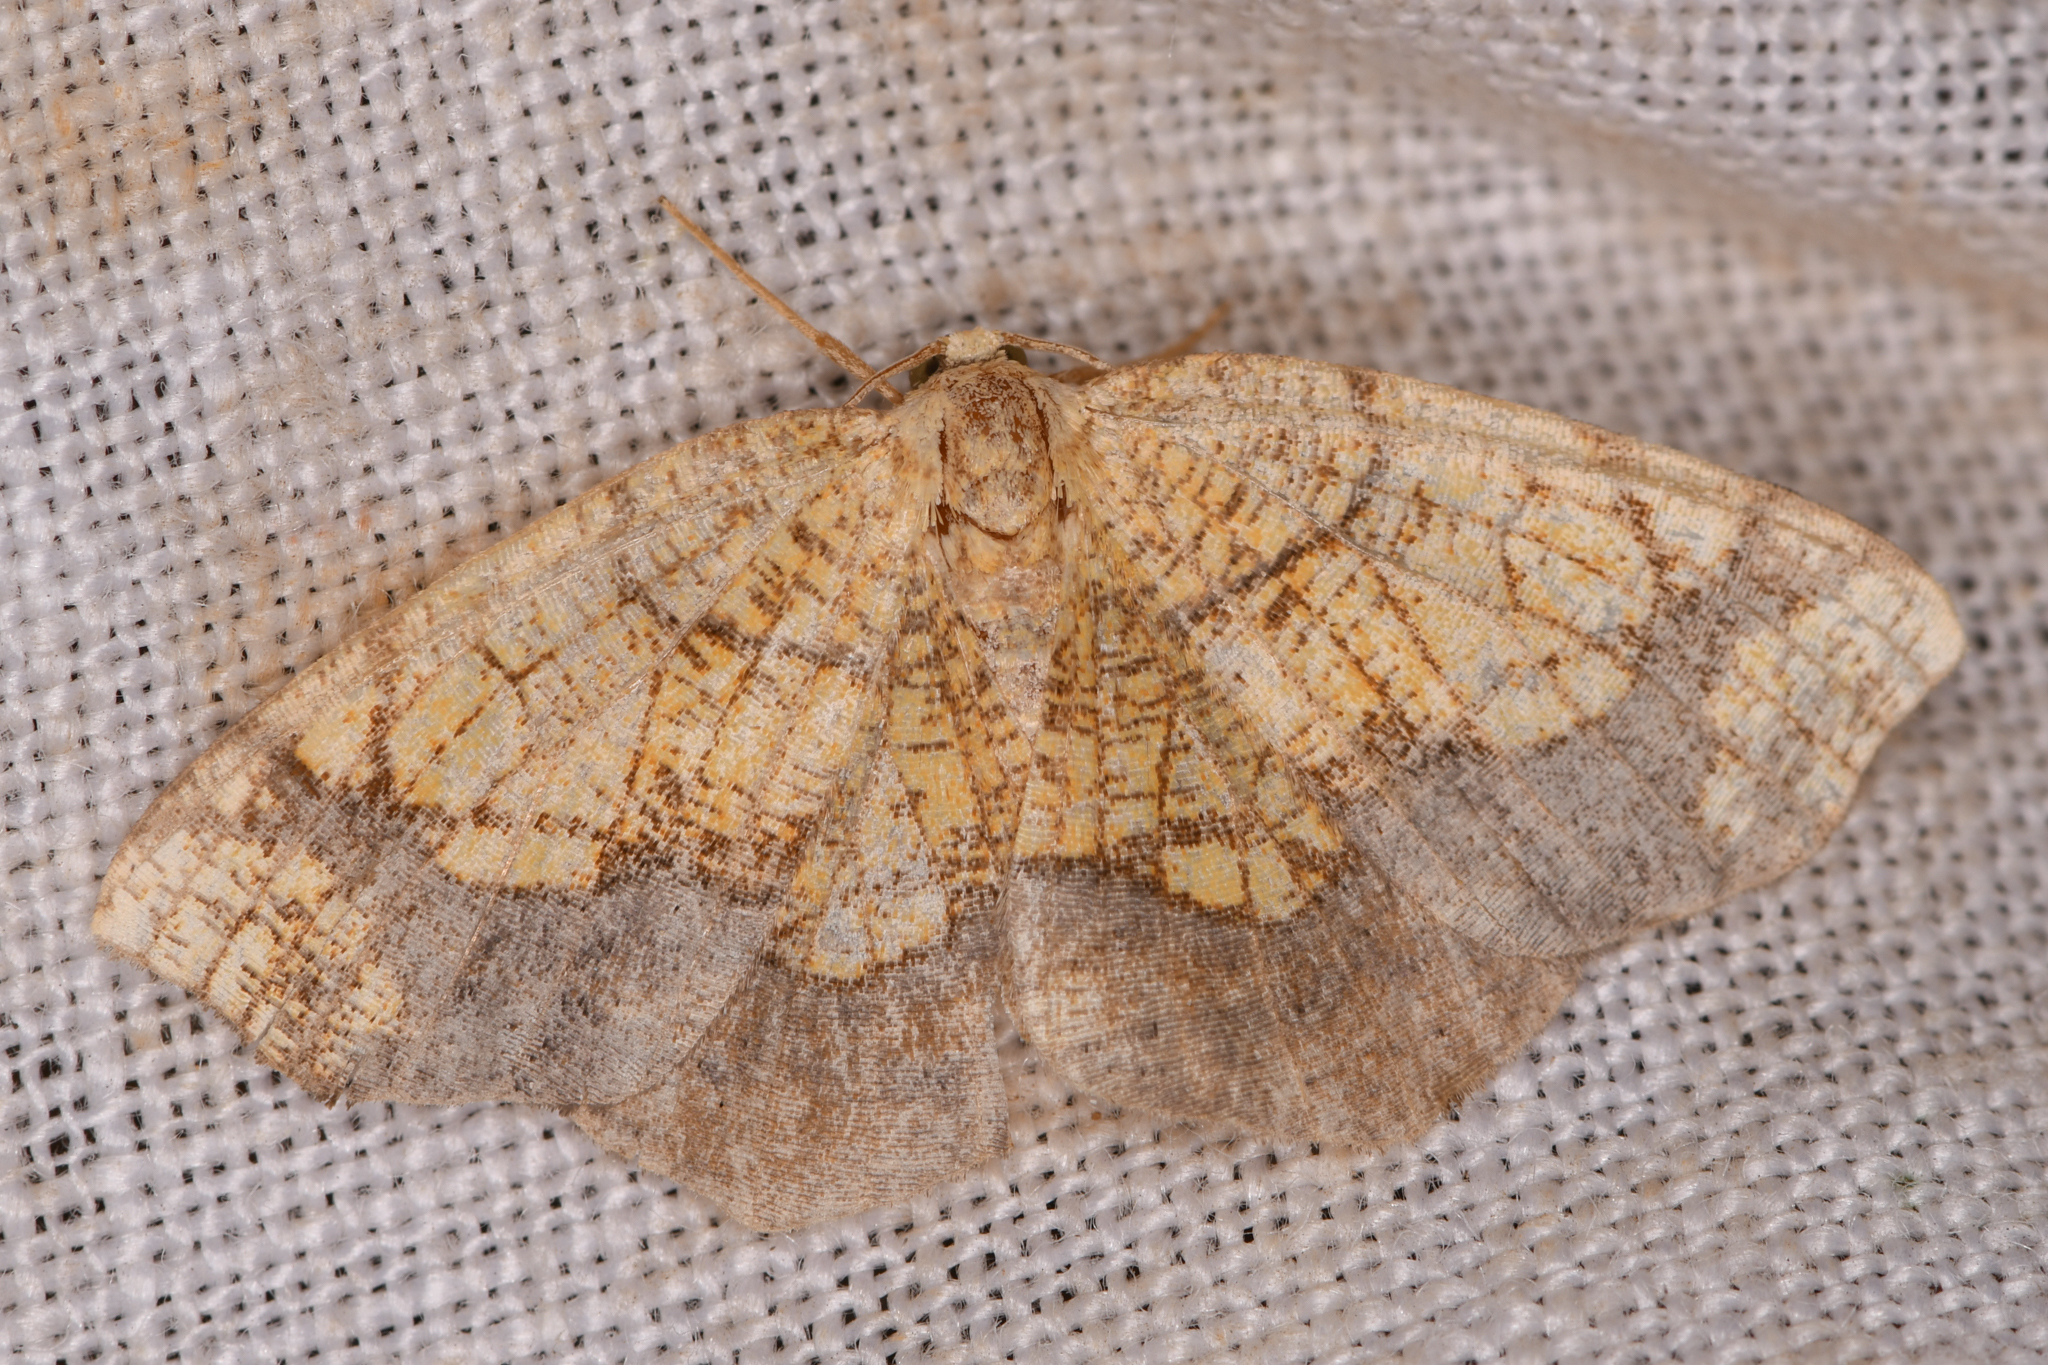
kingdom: Animalia
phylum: Arthropoda
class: Insecta
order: Lepidoptera
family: Geometridae
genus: Nematocampa
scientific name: Nematocampa resistaria
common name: Horned spanworm moth
